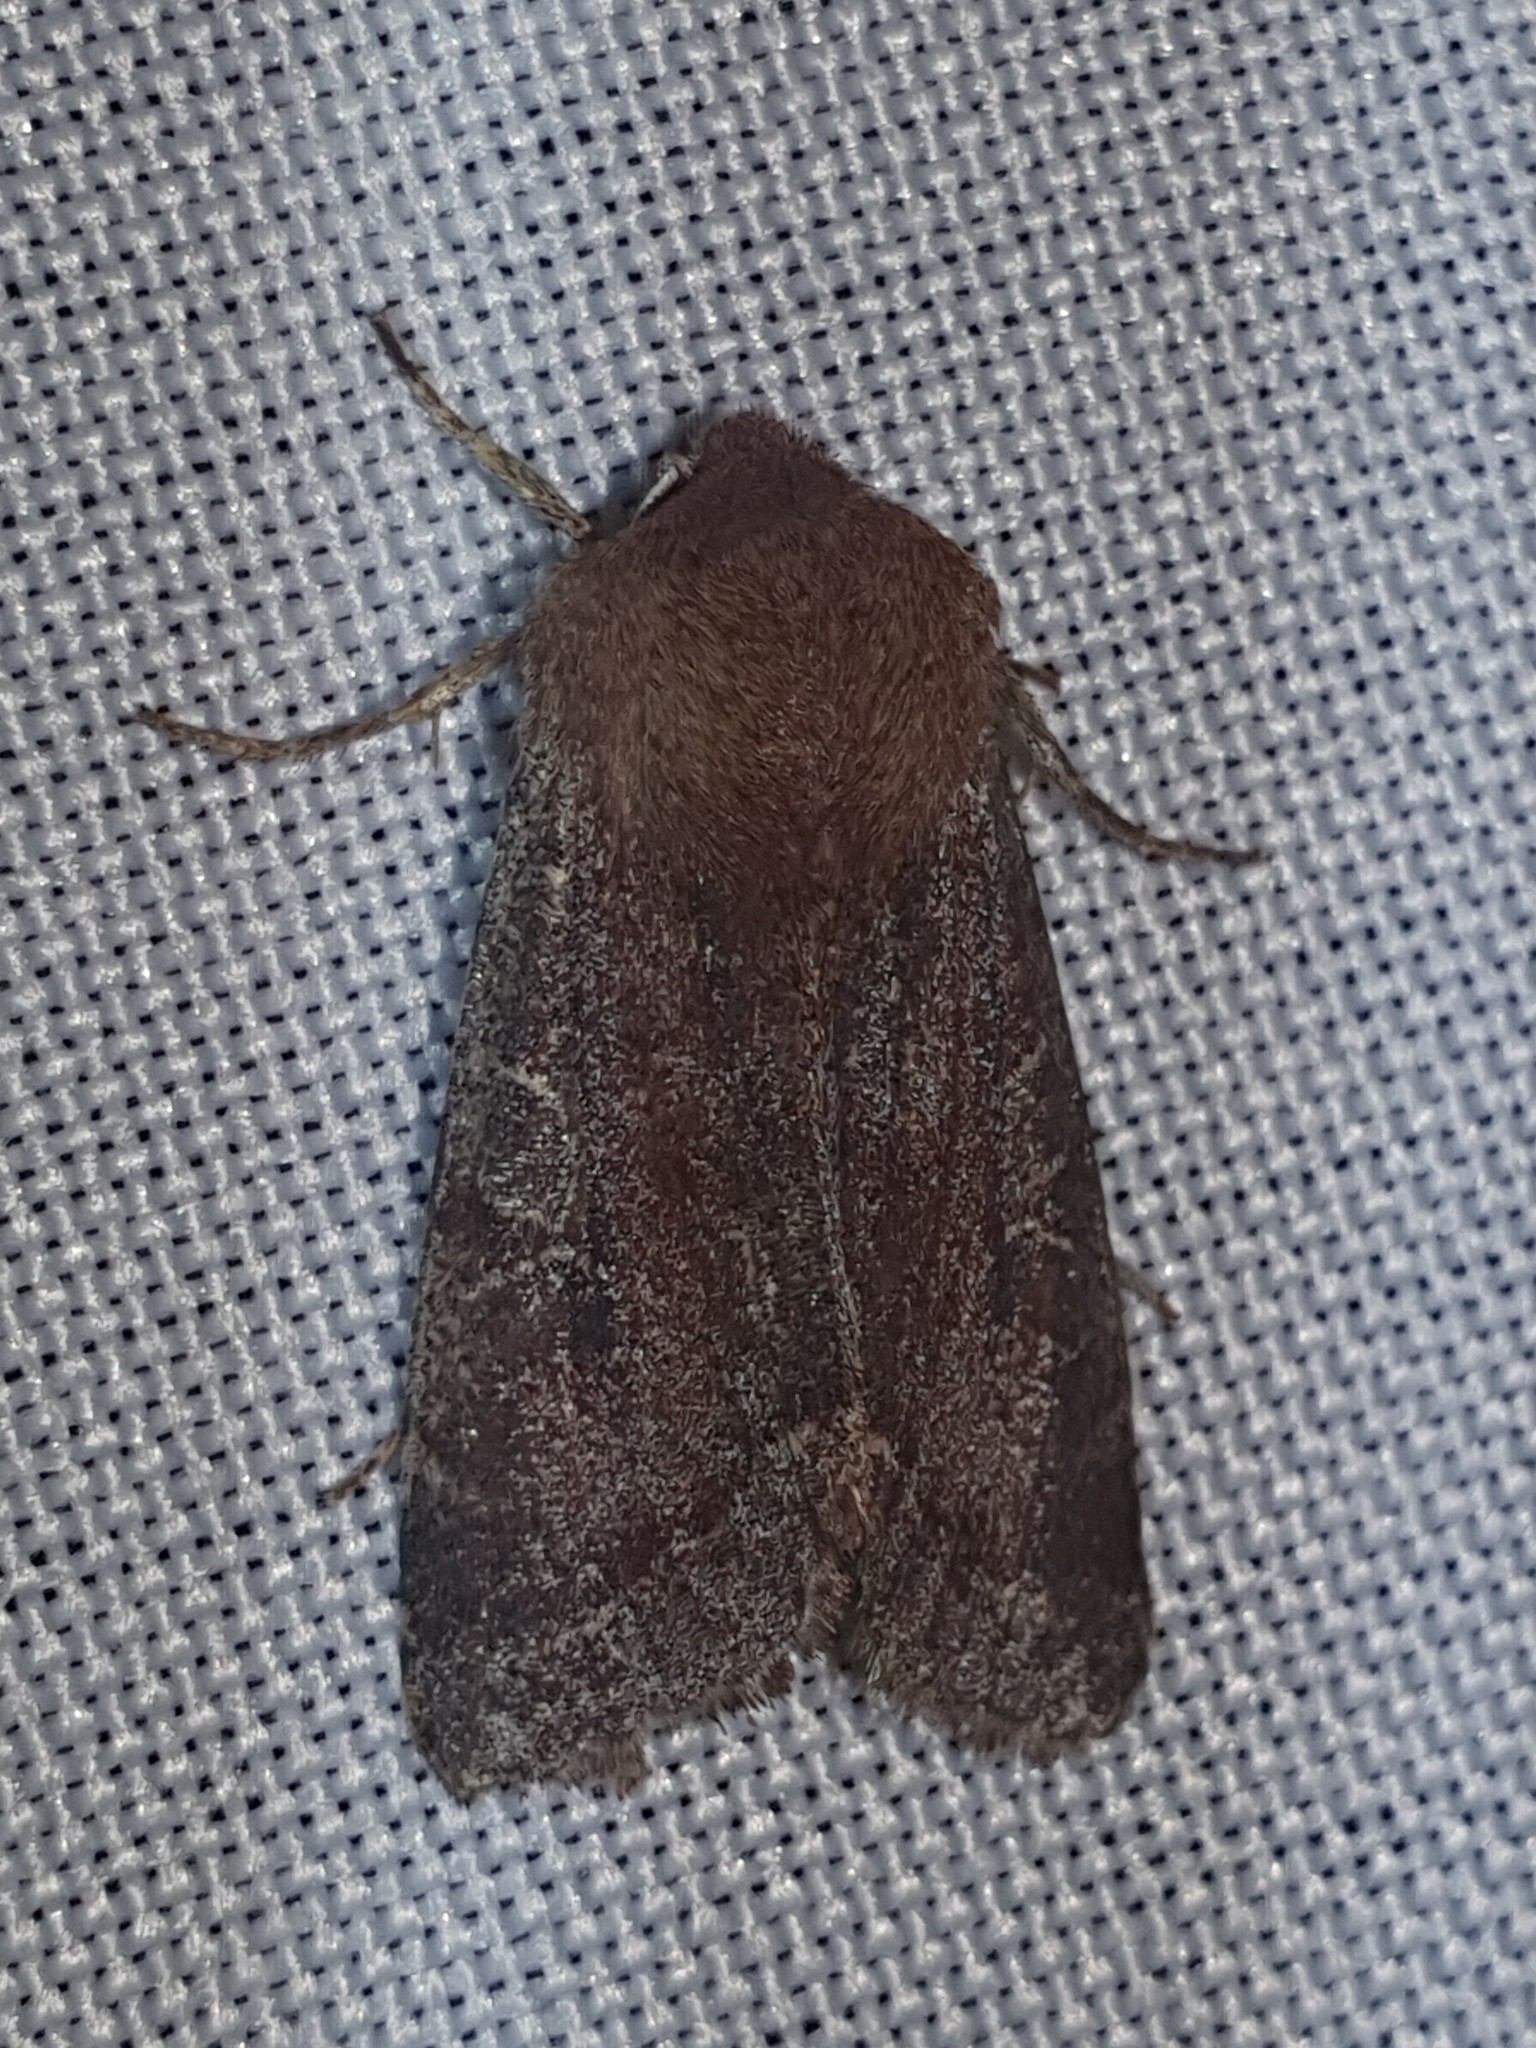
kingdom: Animalia
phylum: Arthropoda
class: Insecta
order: Lepidoptera
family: Noctuidae
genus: Orthosia
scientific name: Orthosia incerta
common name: Clouded drab
